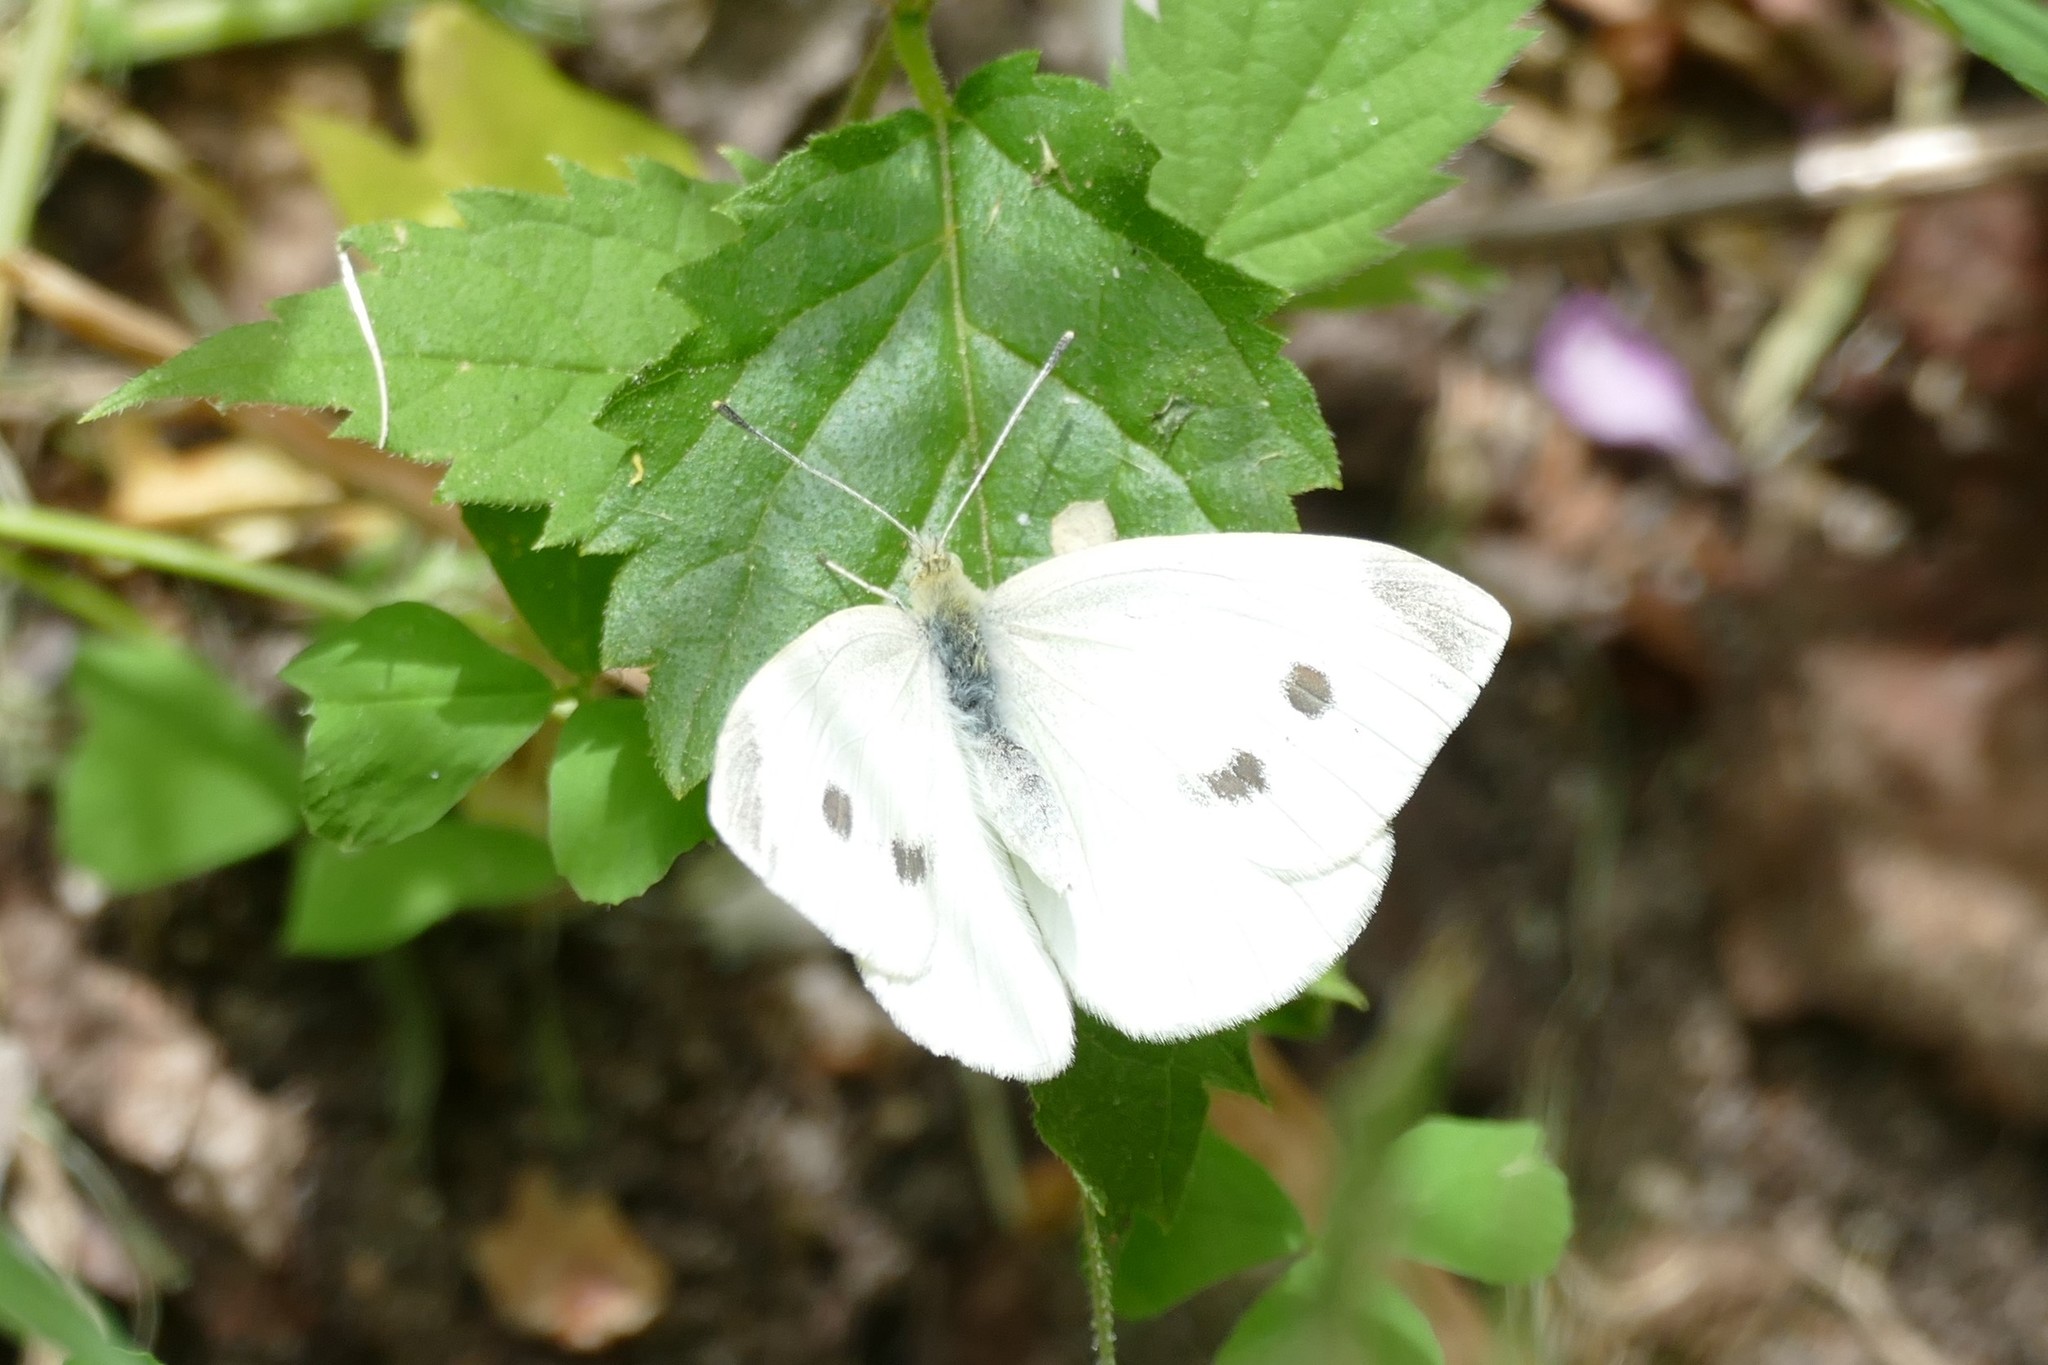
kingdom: Animalia
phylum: Arthropoda
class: Insecta
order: Lepidoptera
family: Pieridae
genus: Pieris
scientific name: Pieris rapae
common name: Small white
